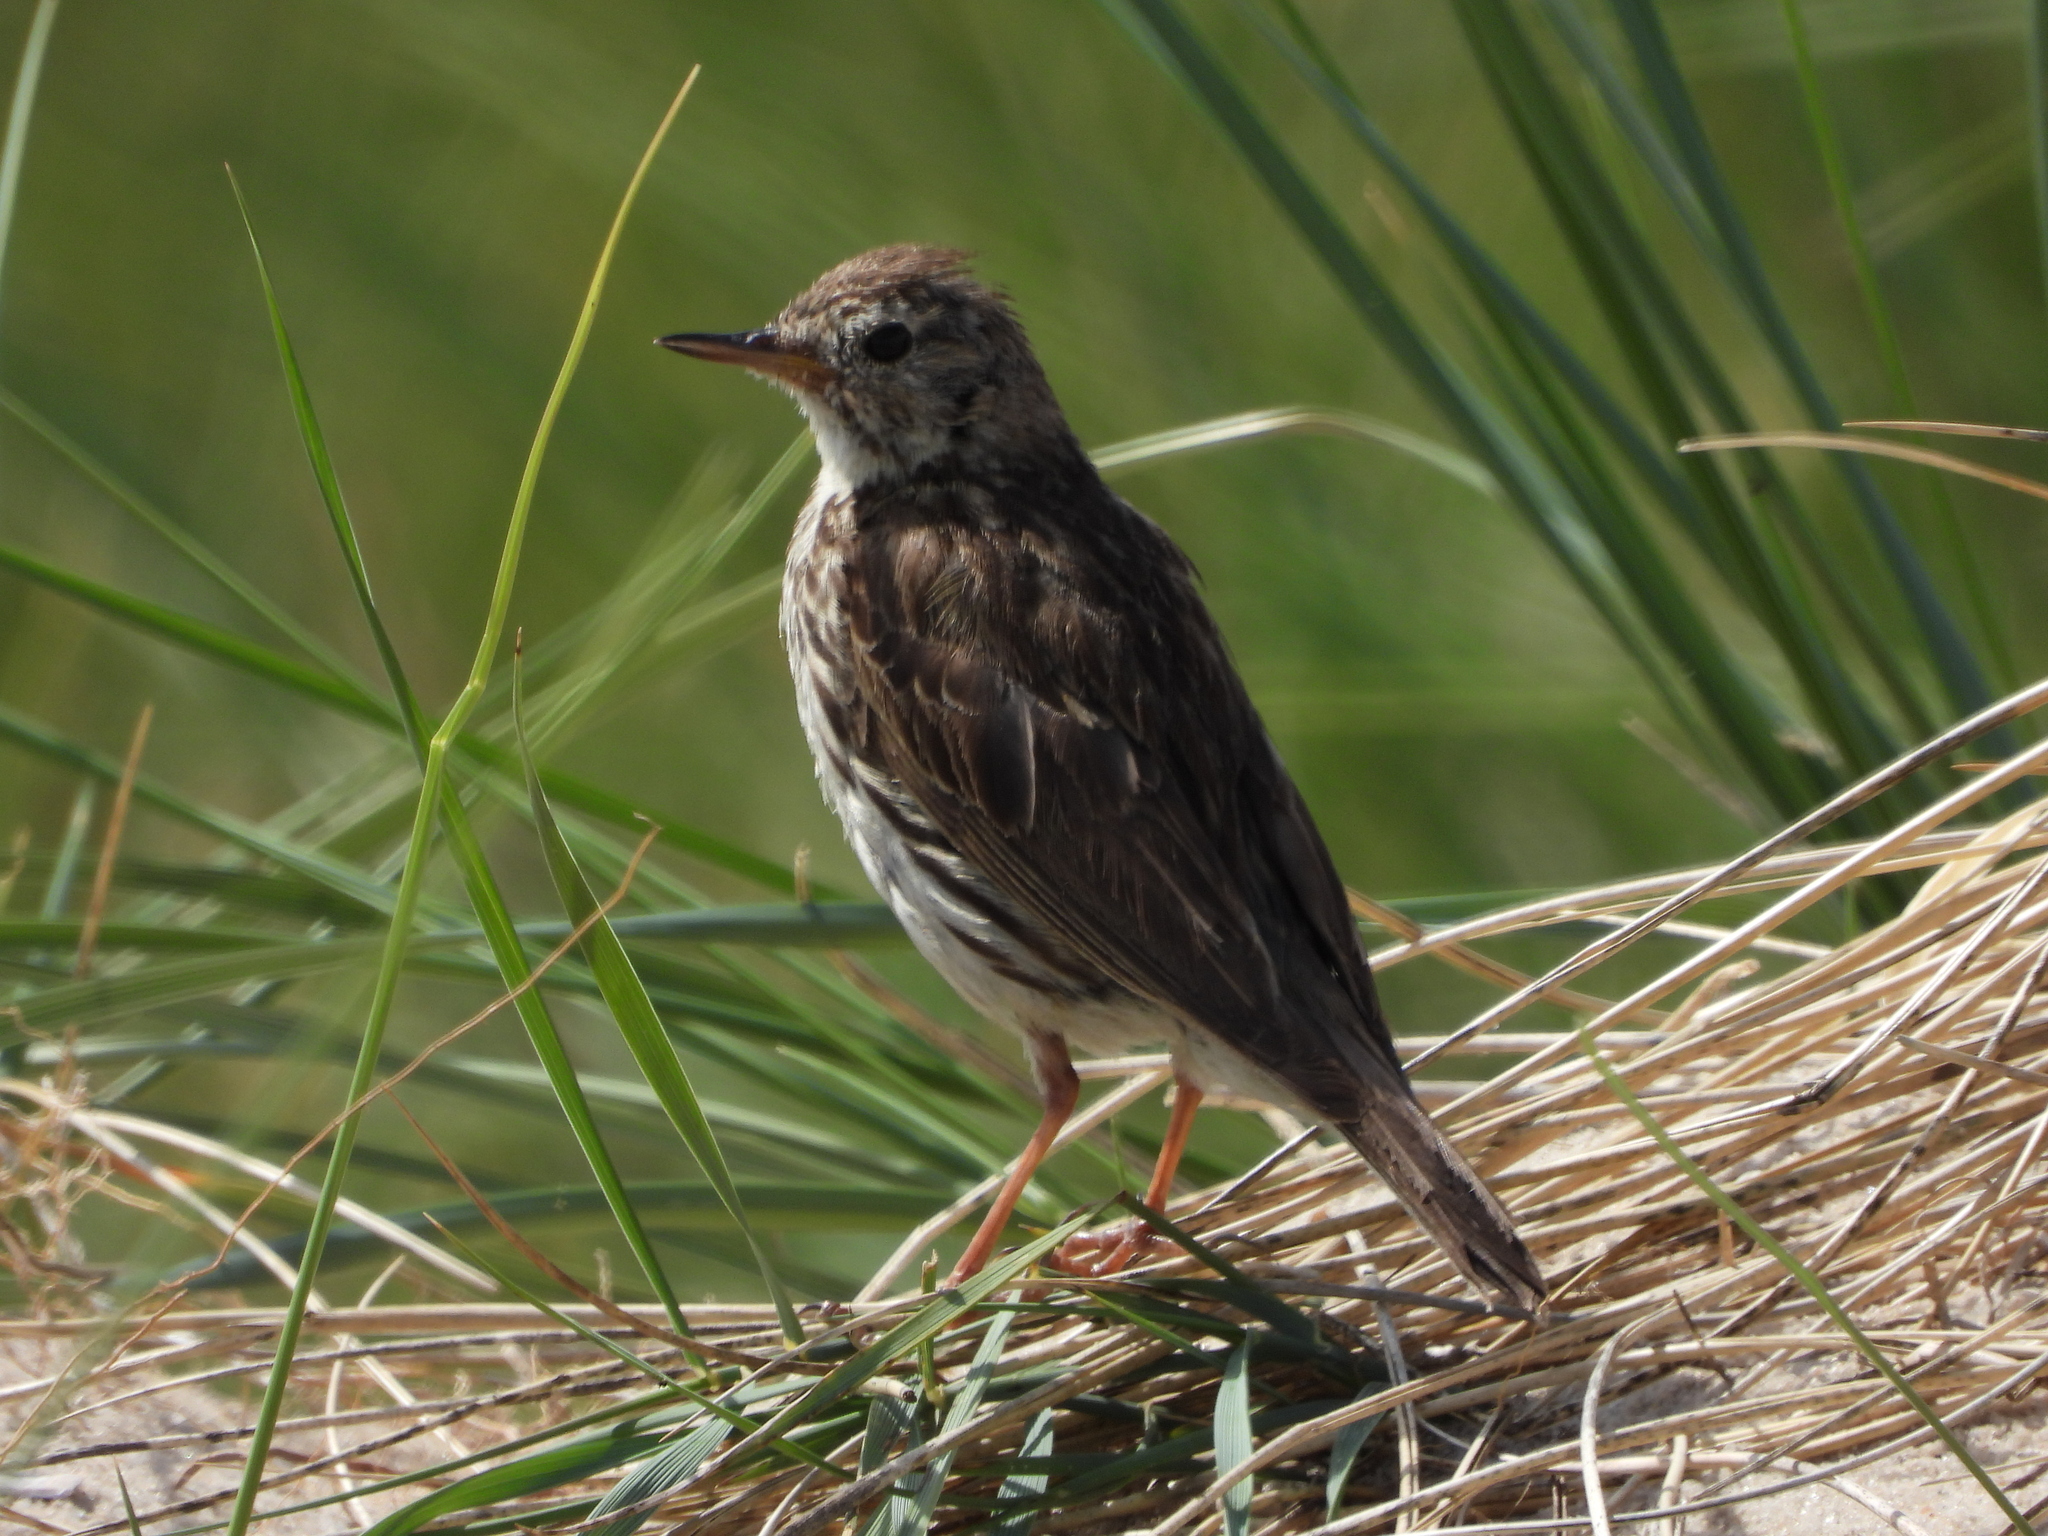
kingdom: Animalia
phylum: Chordata
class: Aves
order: Passeriformes
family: Motacillidae
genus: Anthus
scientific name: Anthus pratensis
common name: Meadow pipit
